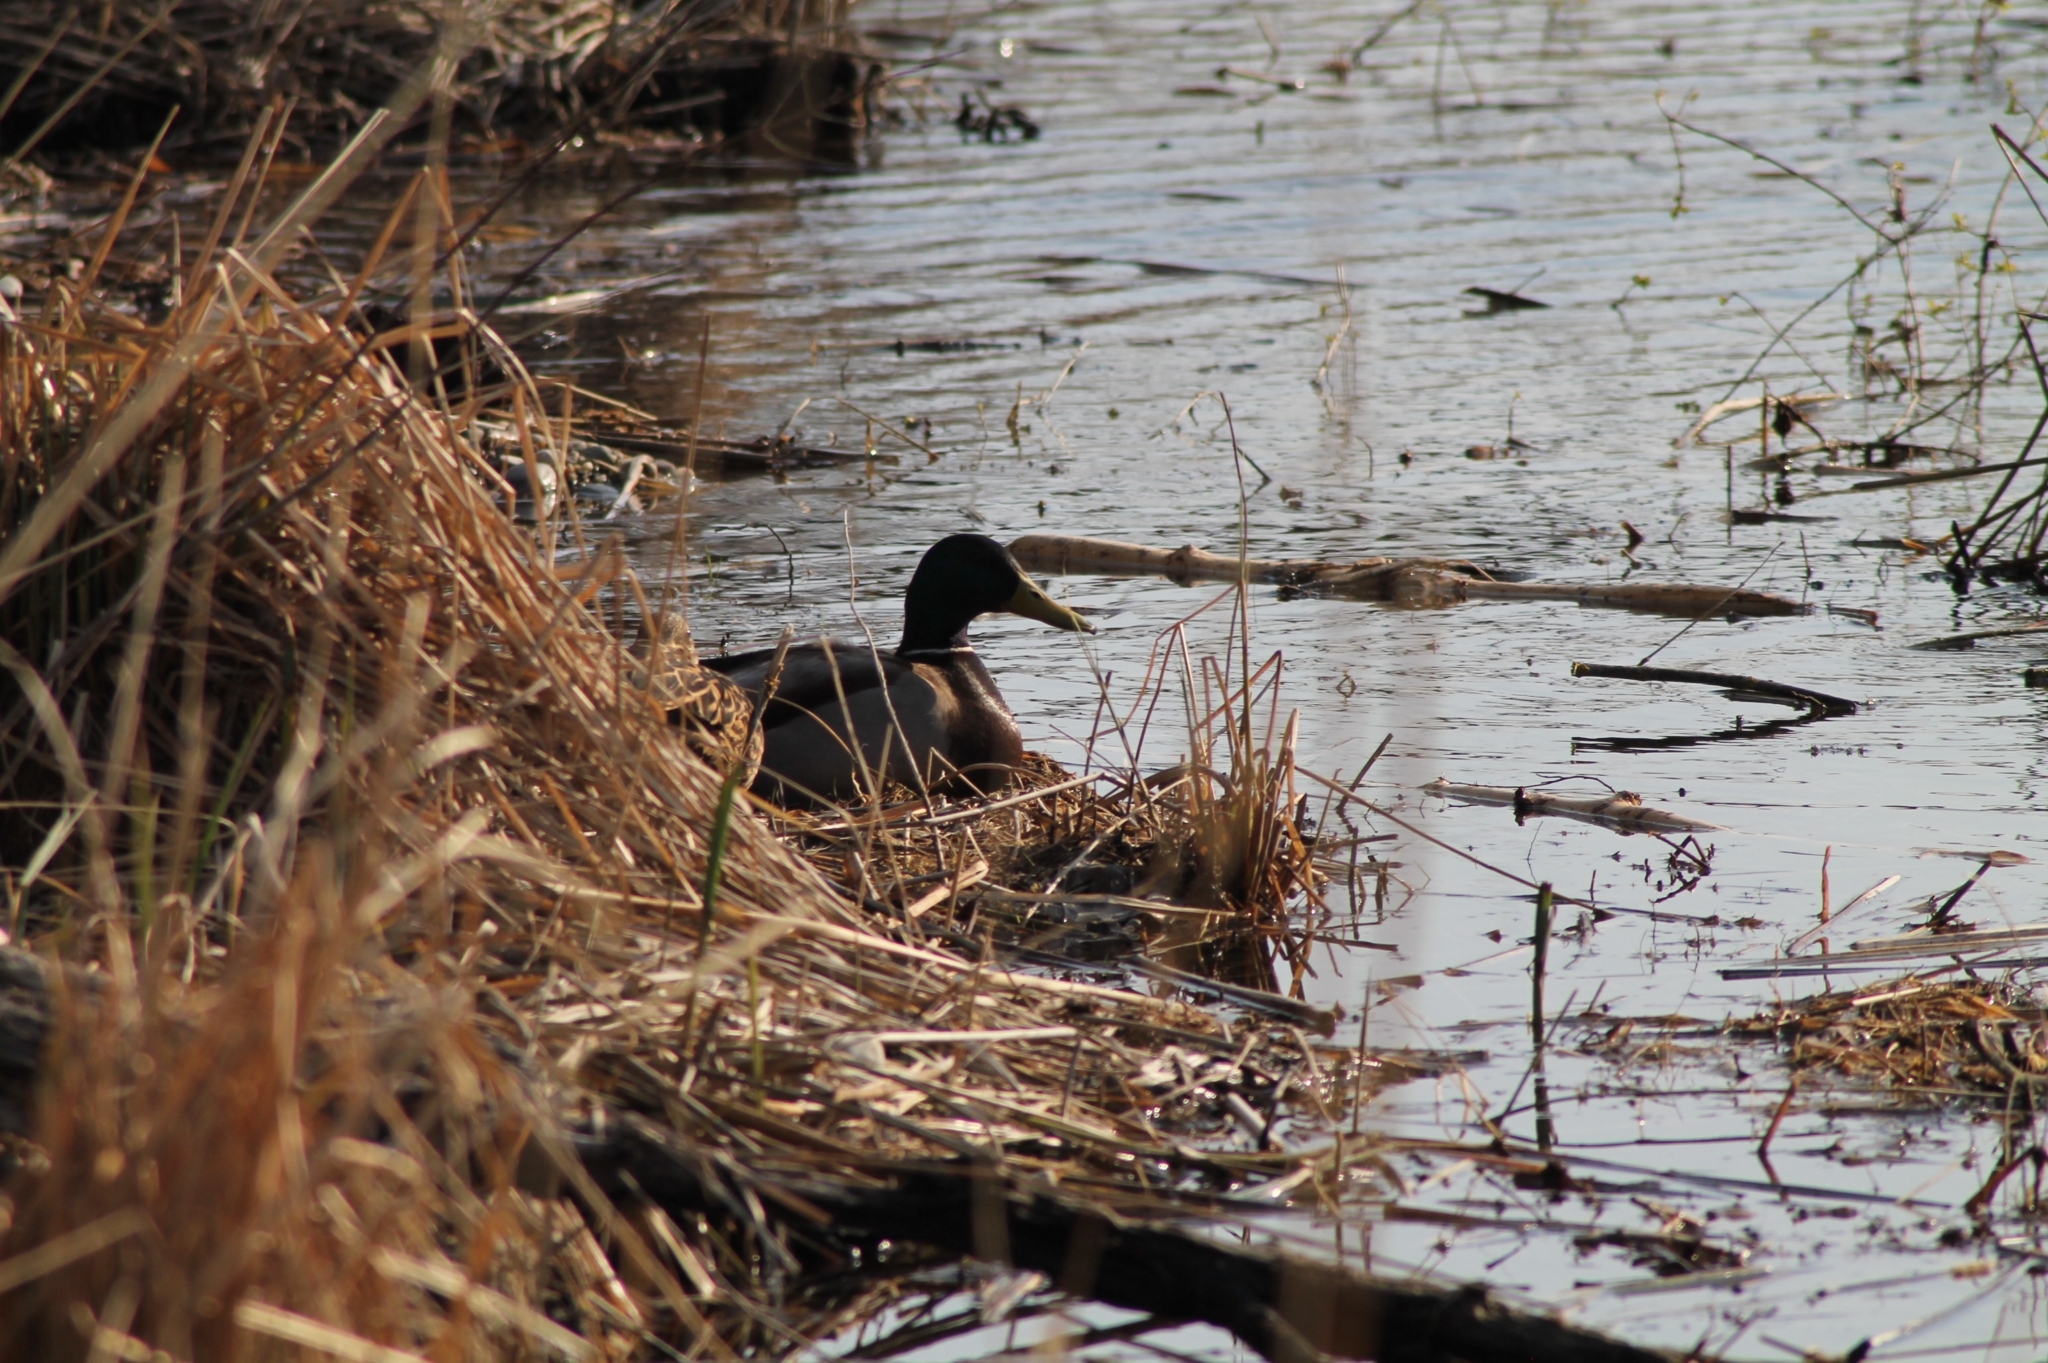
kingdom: Animalia
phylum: Chordata
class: Aves
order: Anseriformes
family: Anatidae
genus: Anas
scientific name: Anas platyrhynchos
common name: Mallard
